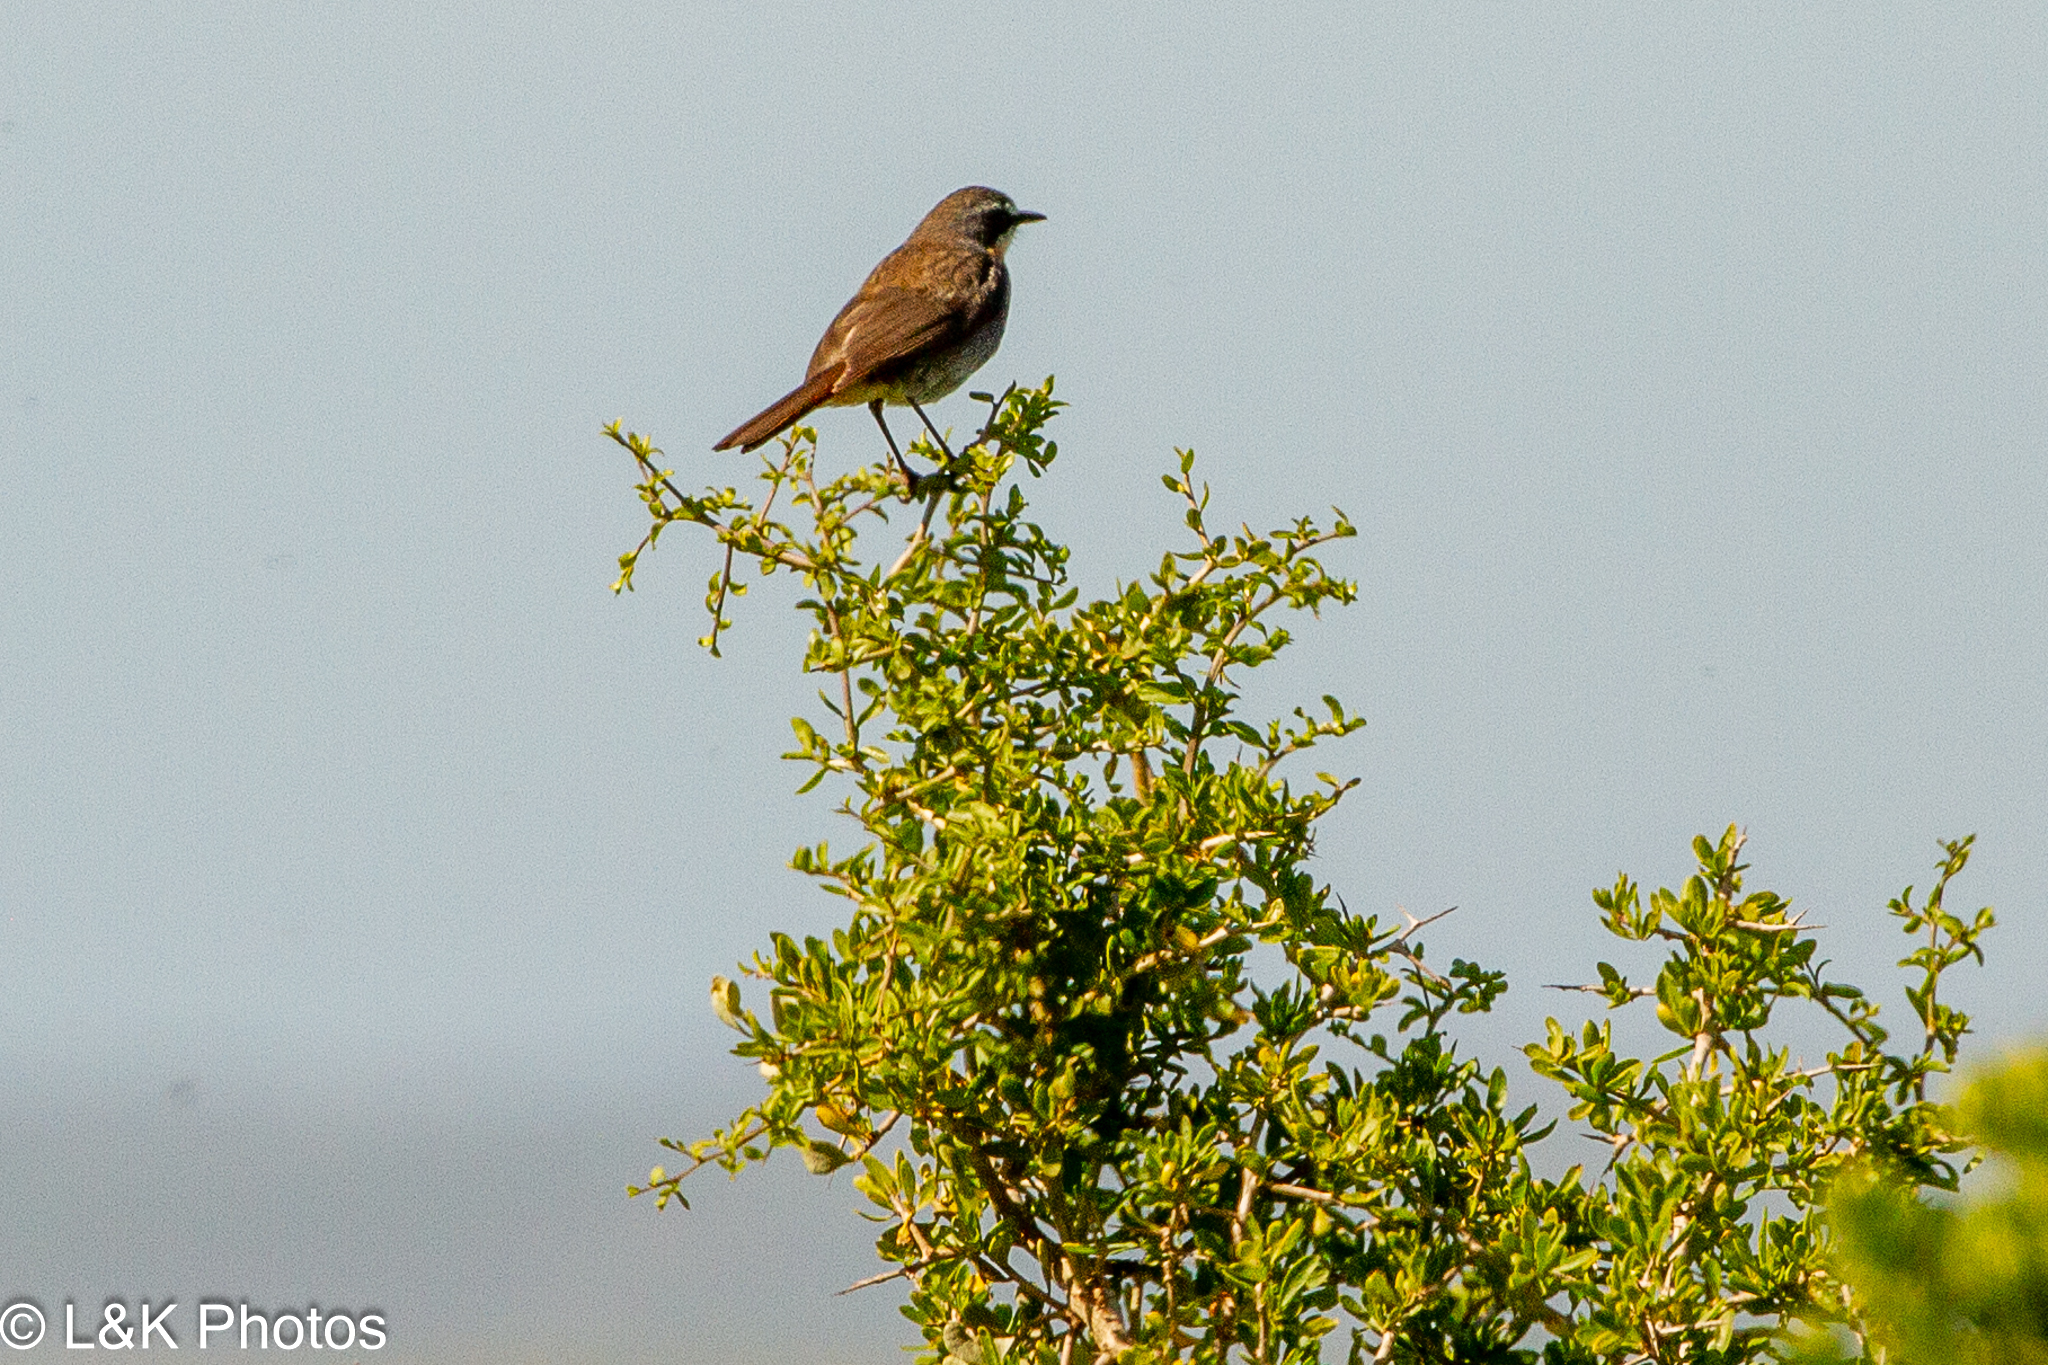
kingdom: Animalia
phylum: Chordata
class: Aves
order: Passeriformes
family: Muscicapidae
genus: Cossypha
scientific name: Cossypha caffra
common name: Cape robin-chat
